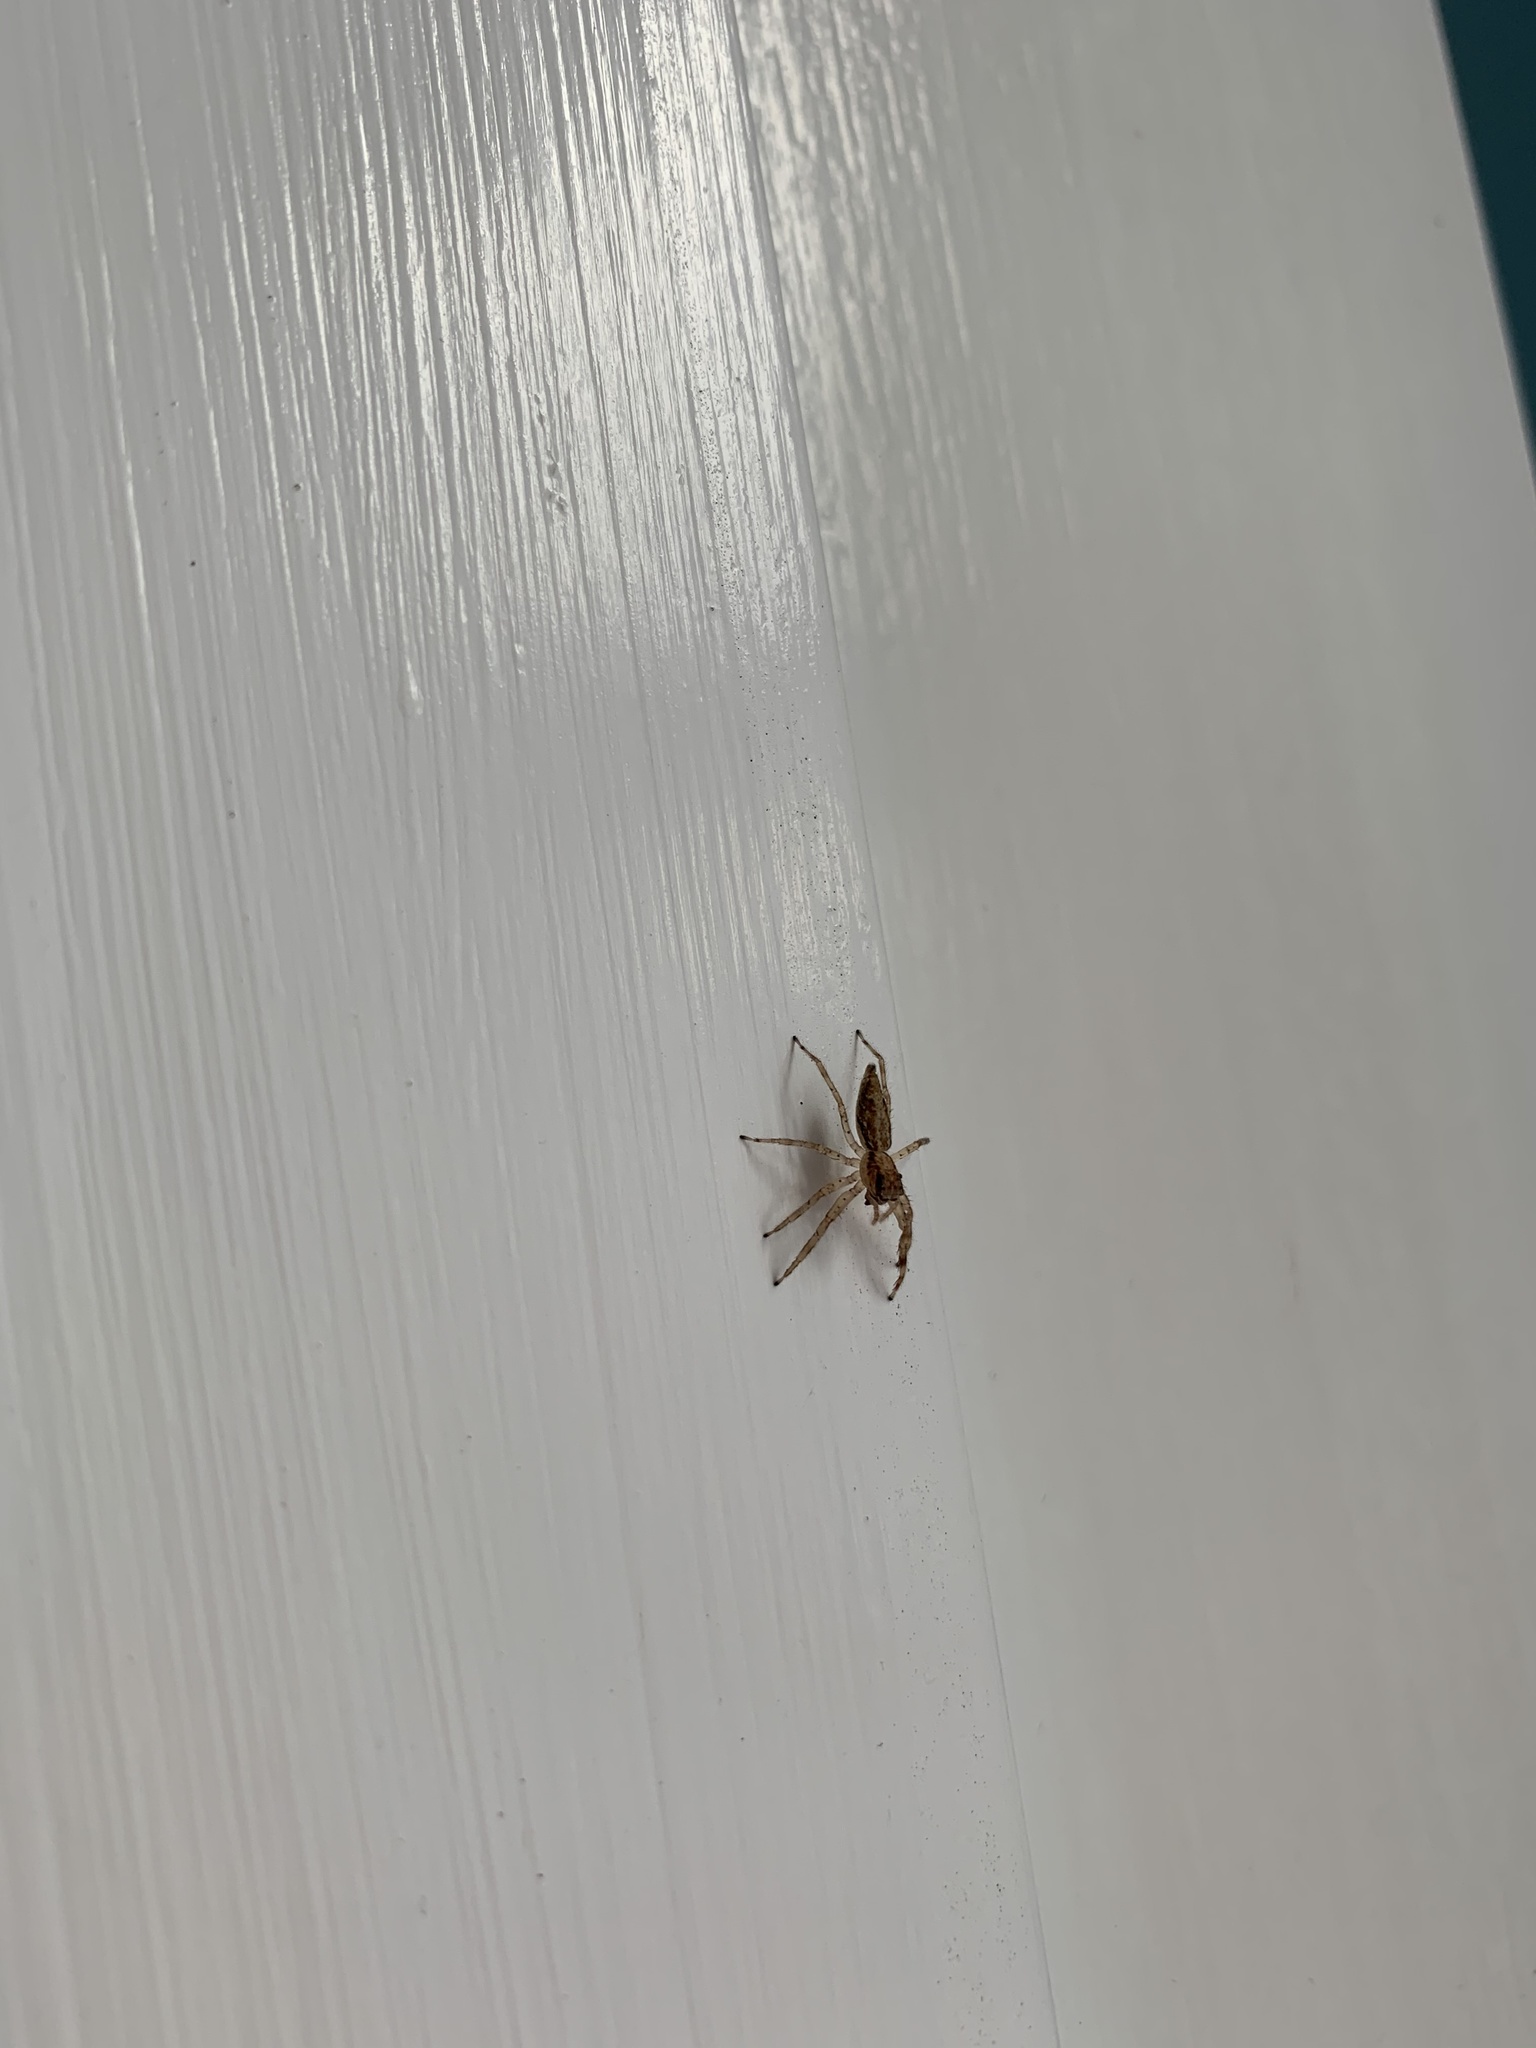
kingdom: Animalia
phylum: Arthropoda
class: Arachnida
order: Araneae
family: Salticidae
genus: Helpis
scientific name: Helpis minitabunda
